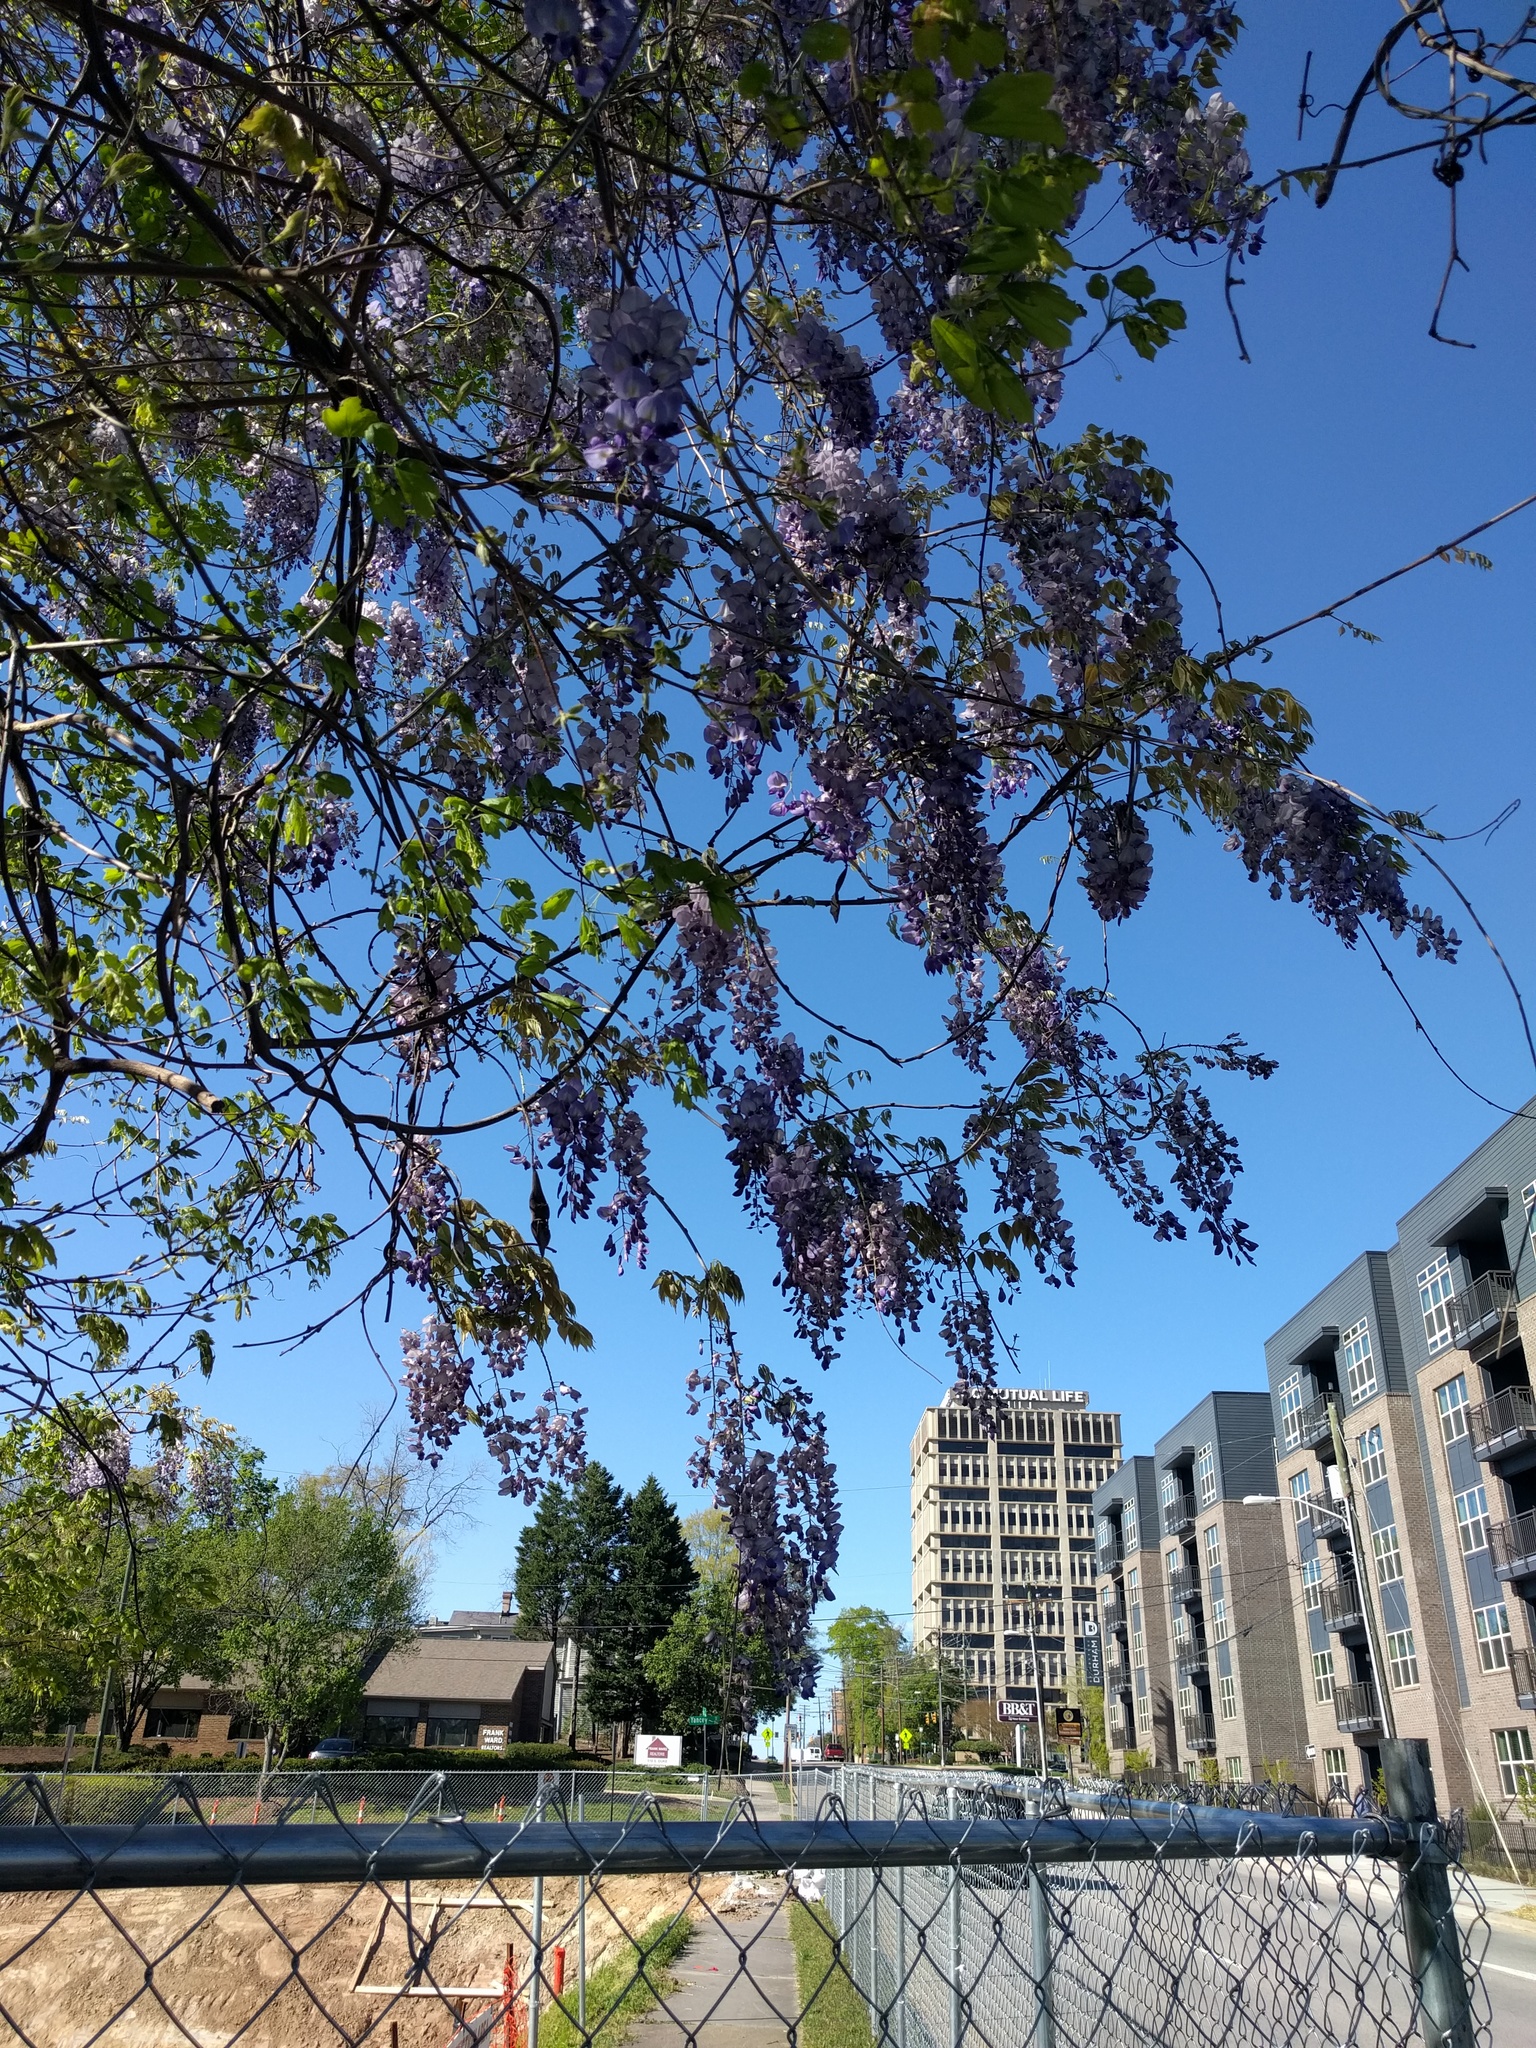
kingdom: Plantae
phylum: Tracheophyta
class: Magnoliopsida
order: Fabales
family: Fabaceae
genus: Wisteria
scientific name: Wisteria sinensis
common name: Chinese wisteria
